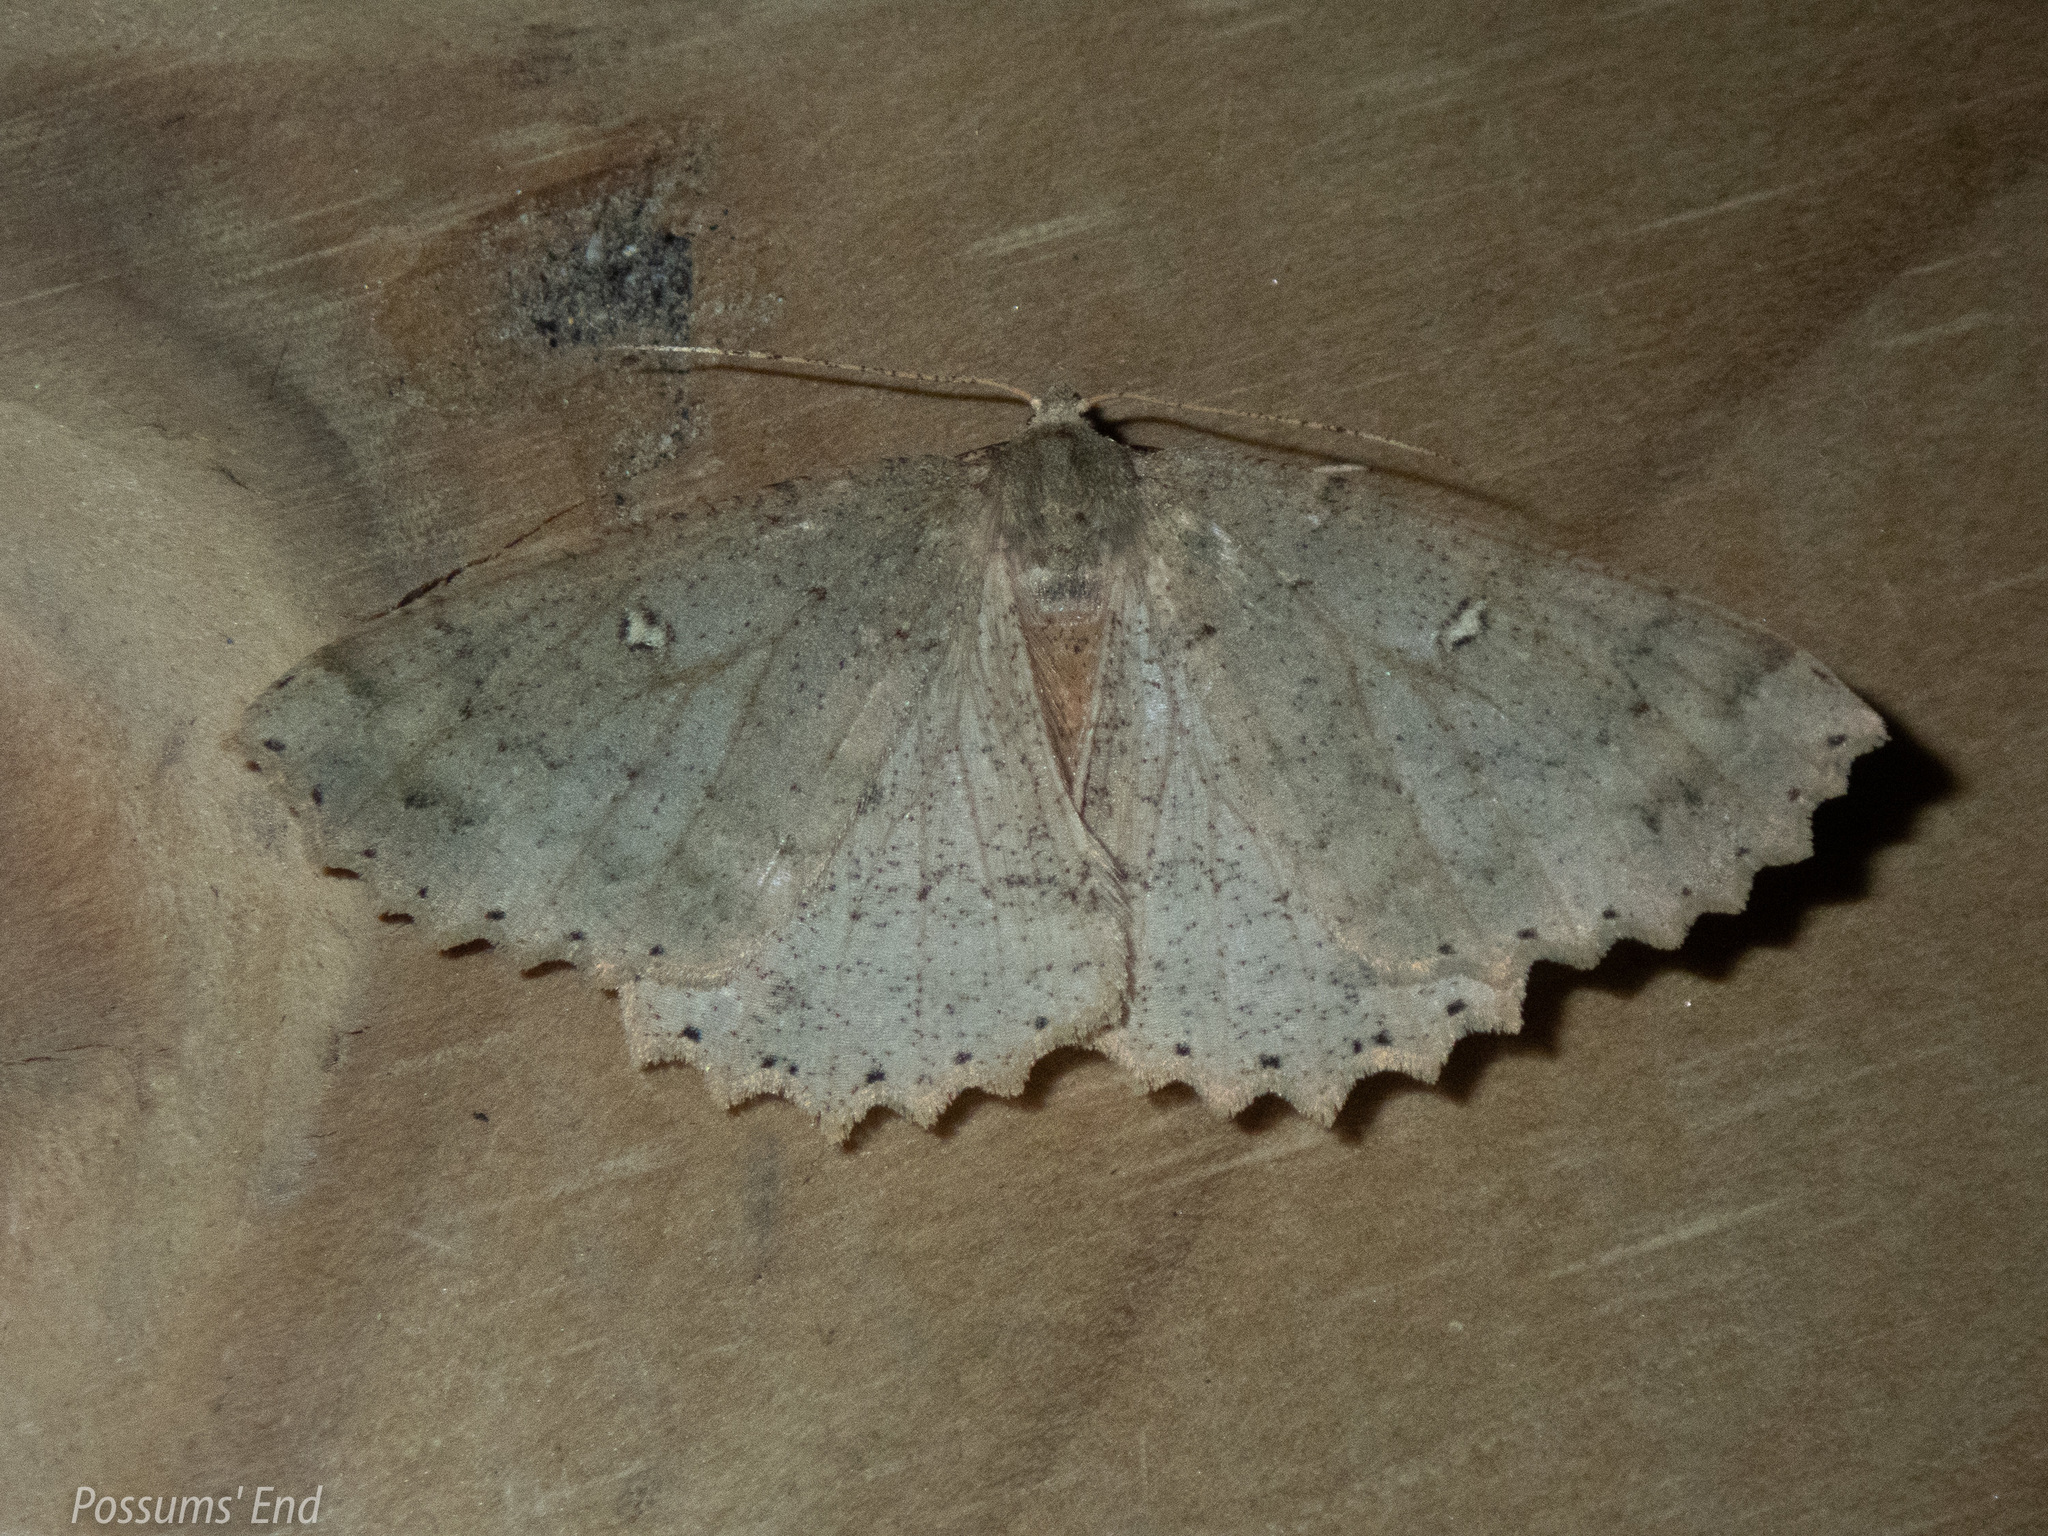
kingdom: Animalia
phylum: Arthropoda
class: Insecta
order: Lepidoptera
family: Geometridae
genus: Cleora
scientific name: Cleora scriptaria
